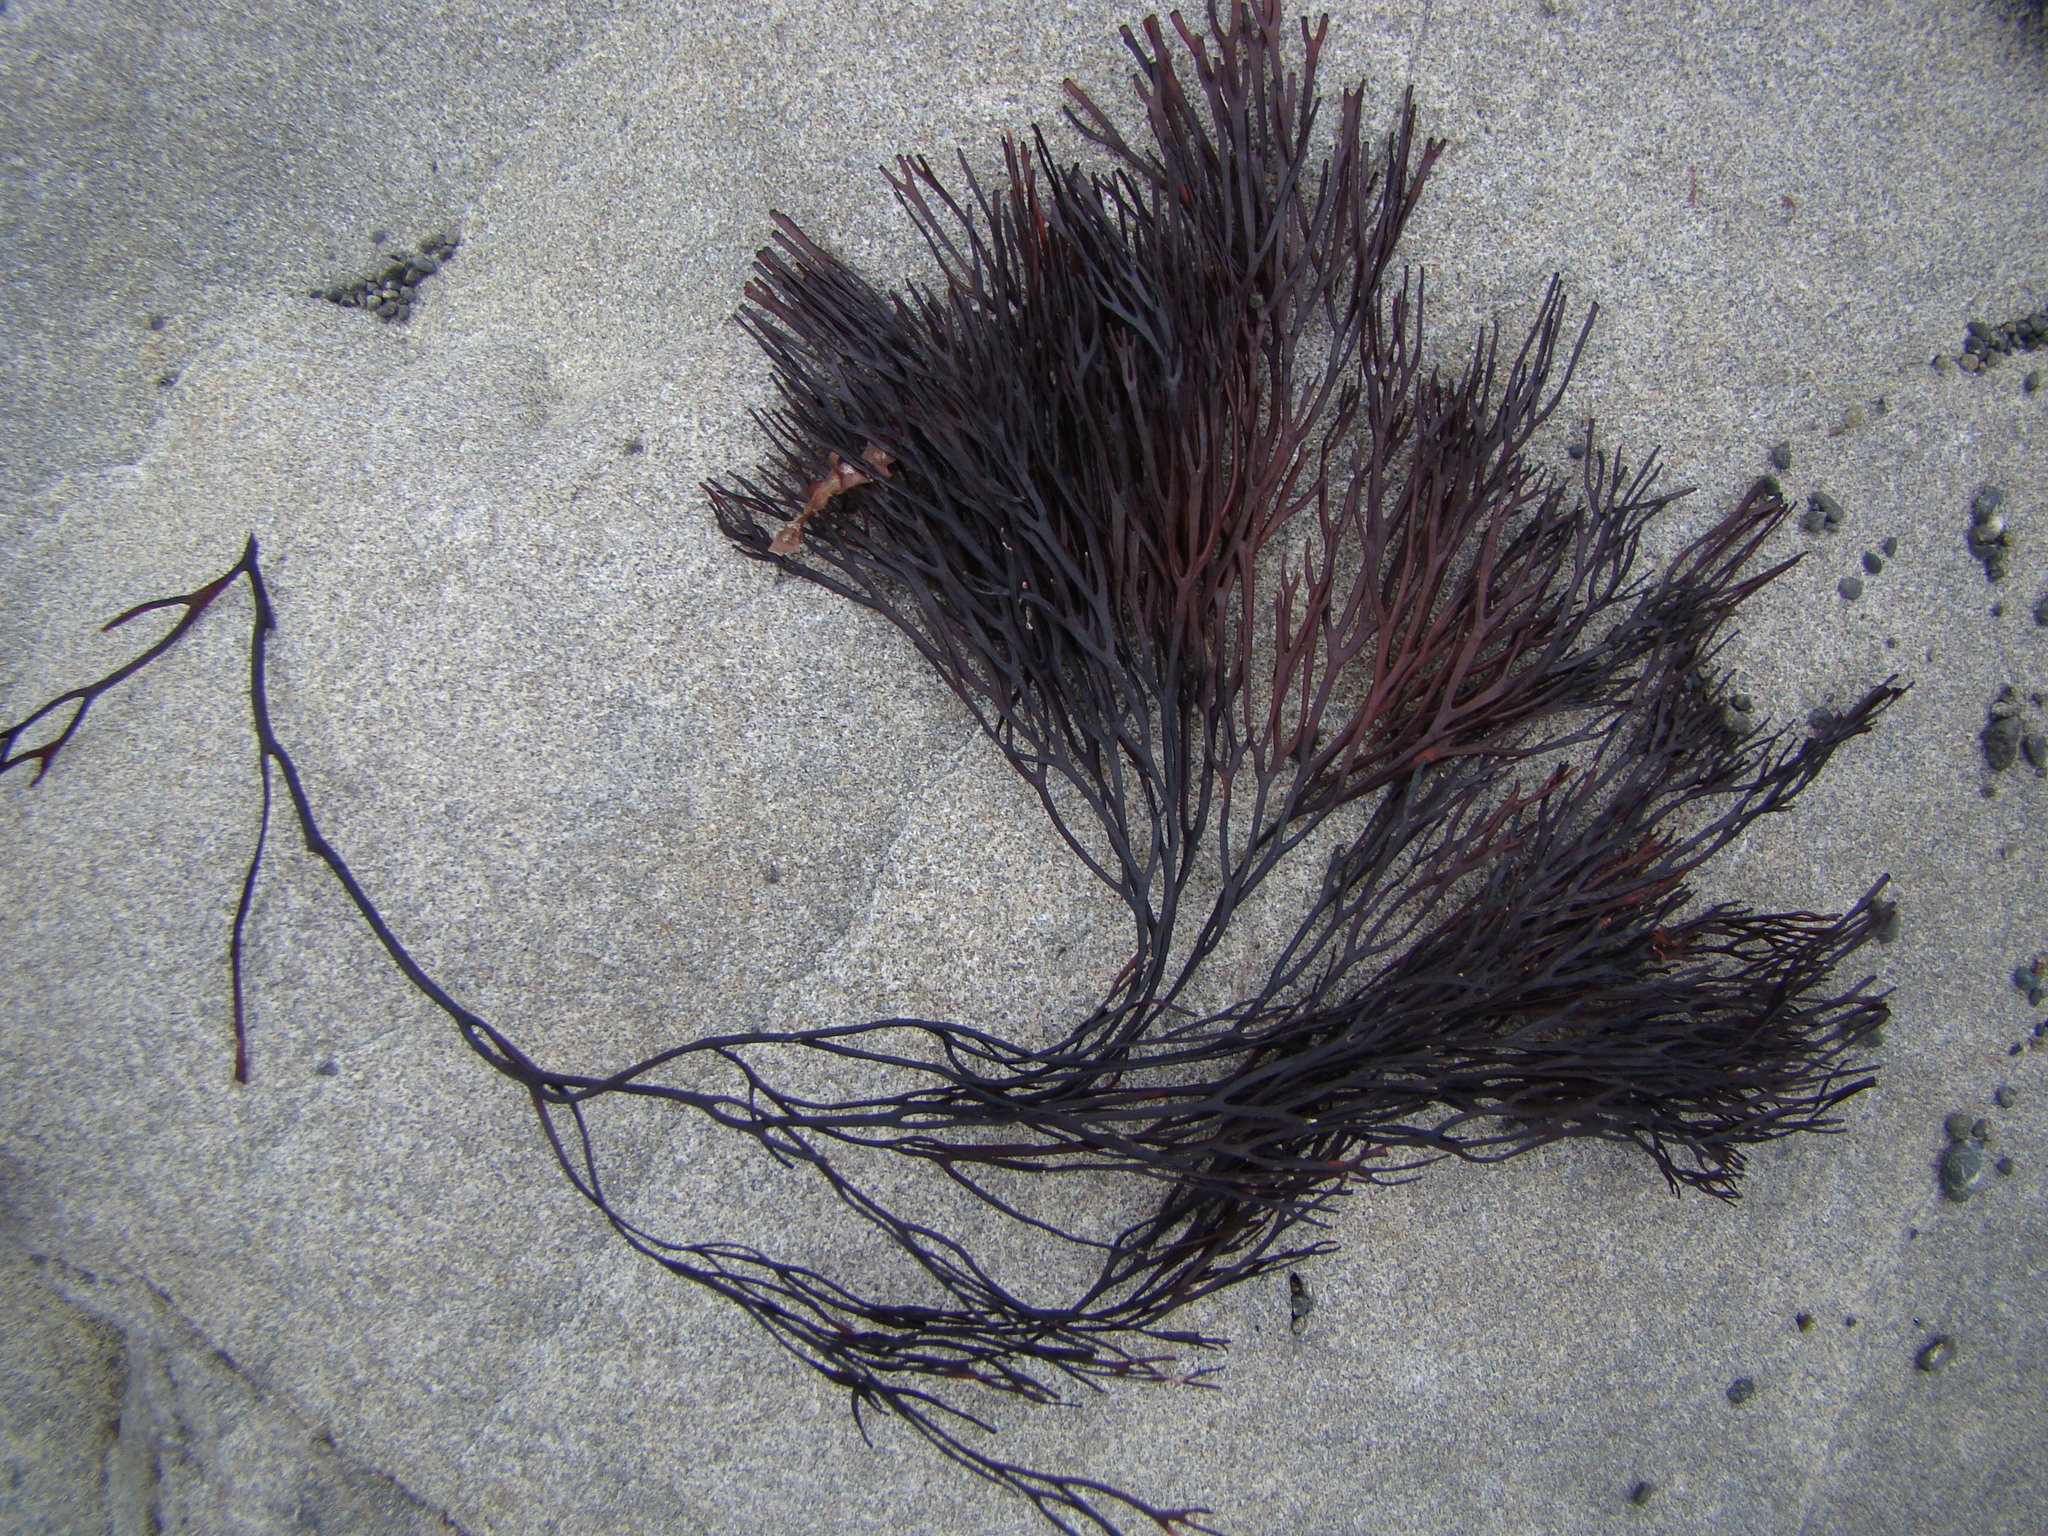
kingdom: Plantae
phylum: Rhodophyta
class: Florideophyceae
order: Gracilariales
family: Gracilariaceae
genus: Melanthalia
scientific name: Melanthalia abscissa
